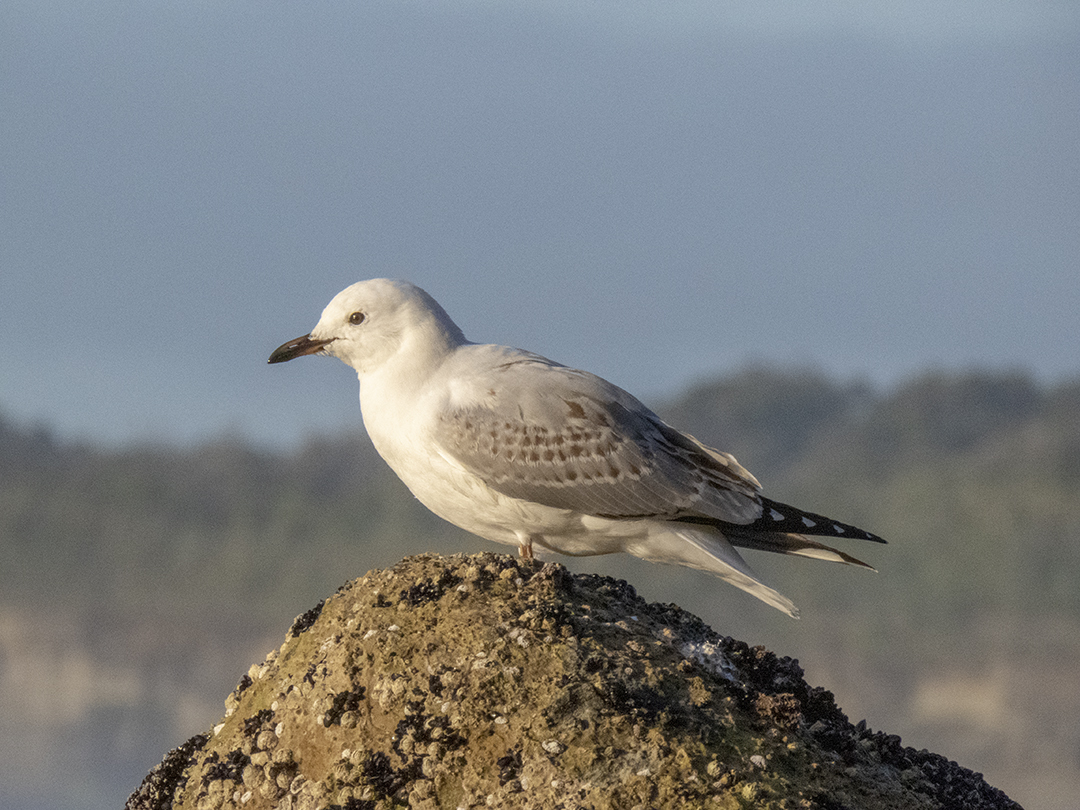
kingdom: Animalia
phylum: Chordata
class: Aves
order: Charadriiformes
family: Laridae
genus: Chroicocephalus
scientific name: Chroicocephalus novaehollandiae
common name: Silver gull
